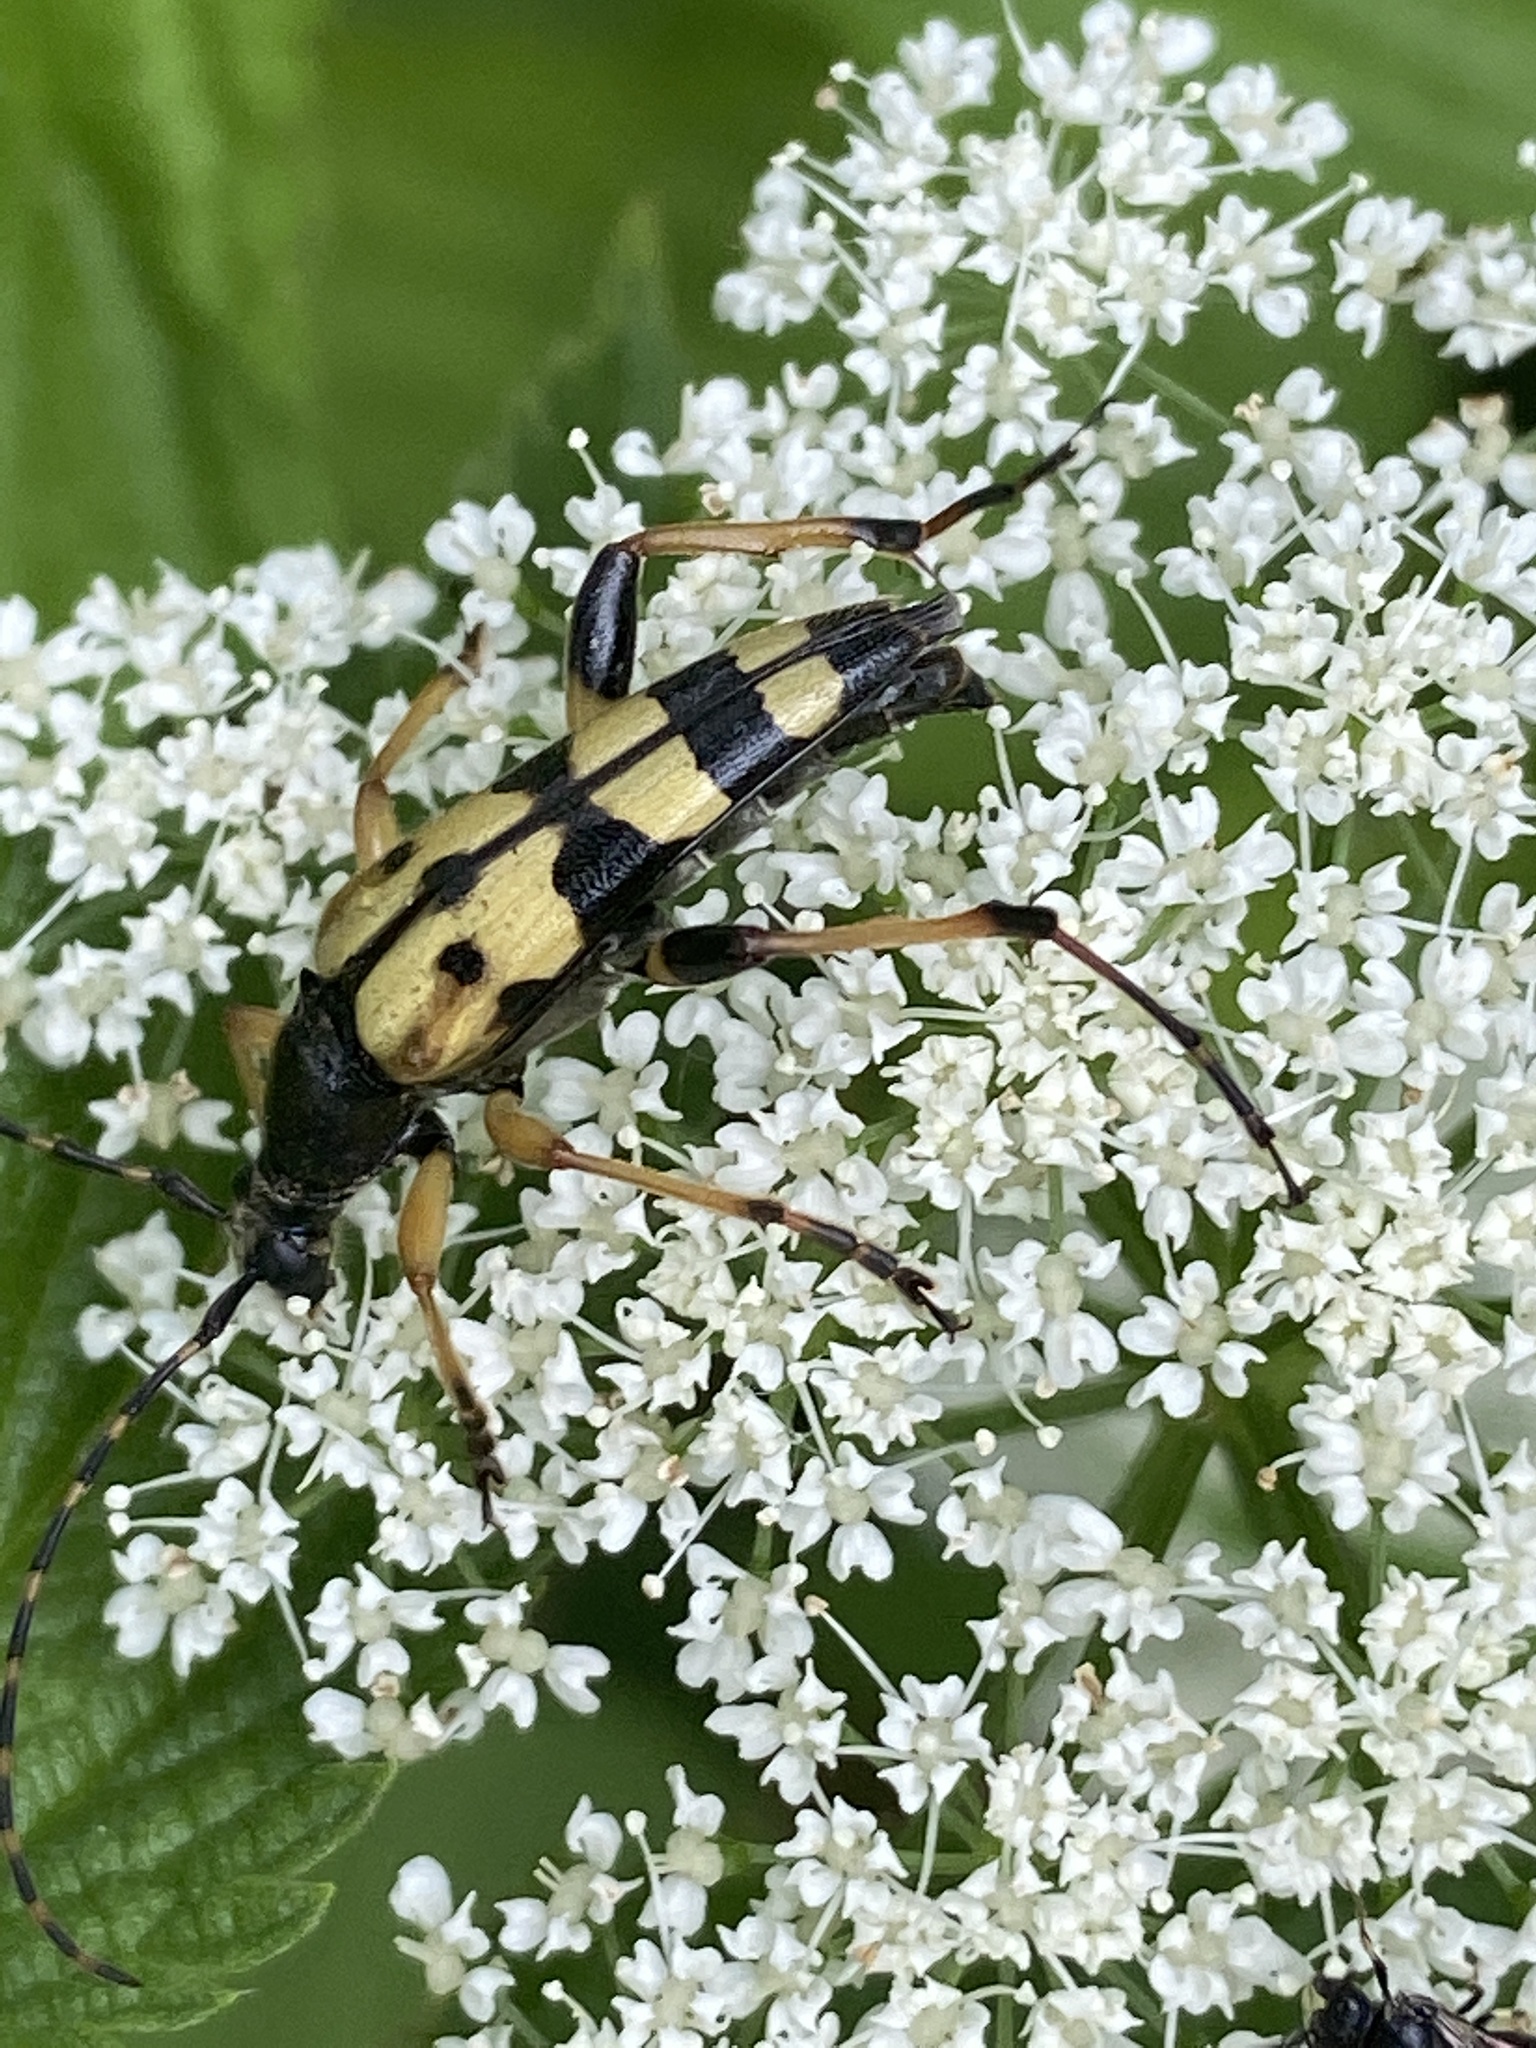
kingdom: Animalia
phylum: Arthropoda
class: Insecta
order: Coleoptera
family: Cerambycidae
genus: Rutpela
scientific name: Rutpela maculata
